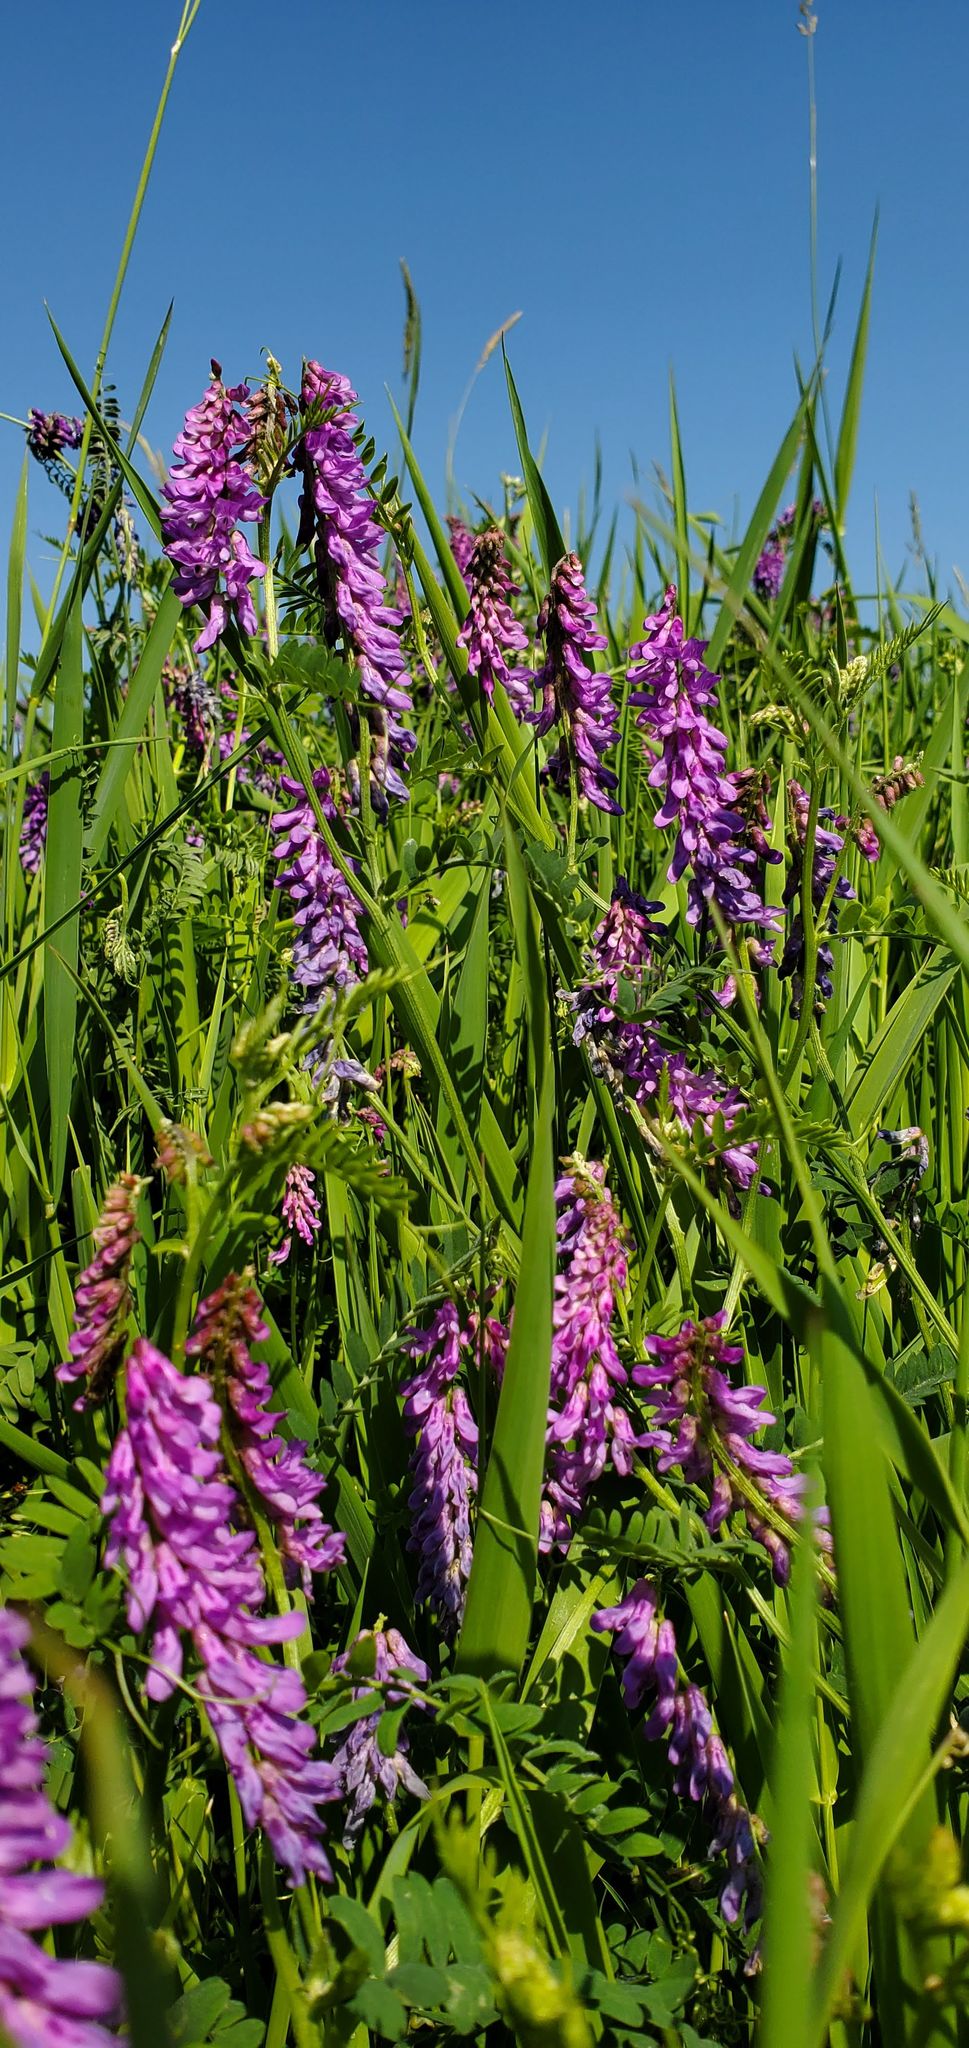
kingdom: Plantae
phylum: Tracheophyta
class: Magnoliopsida
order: Fabales
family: Fabaceae
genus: Vicia
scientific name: Vicia cracca
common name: Bird vetch
